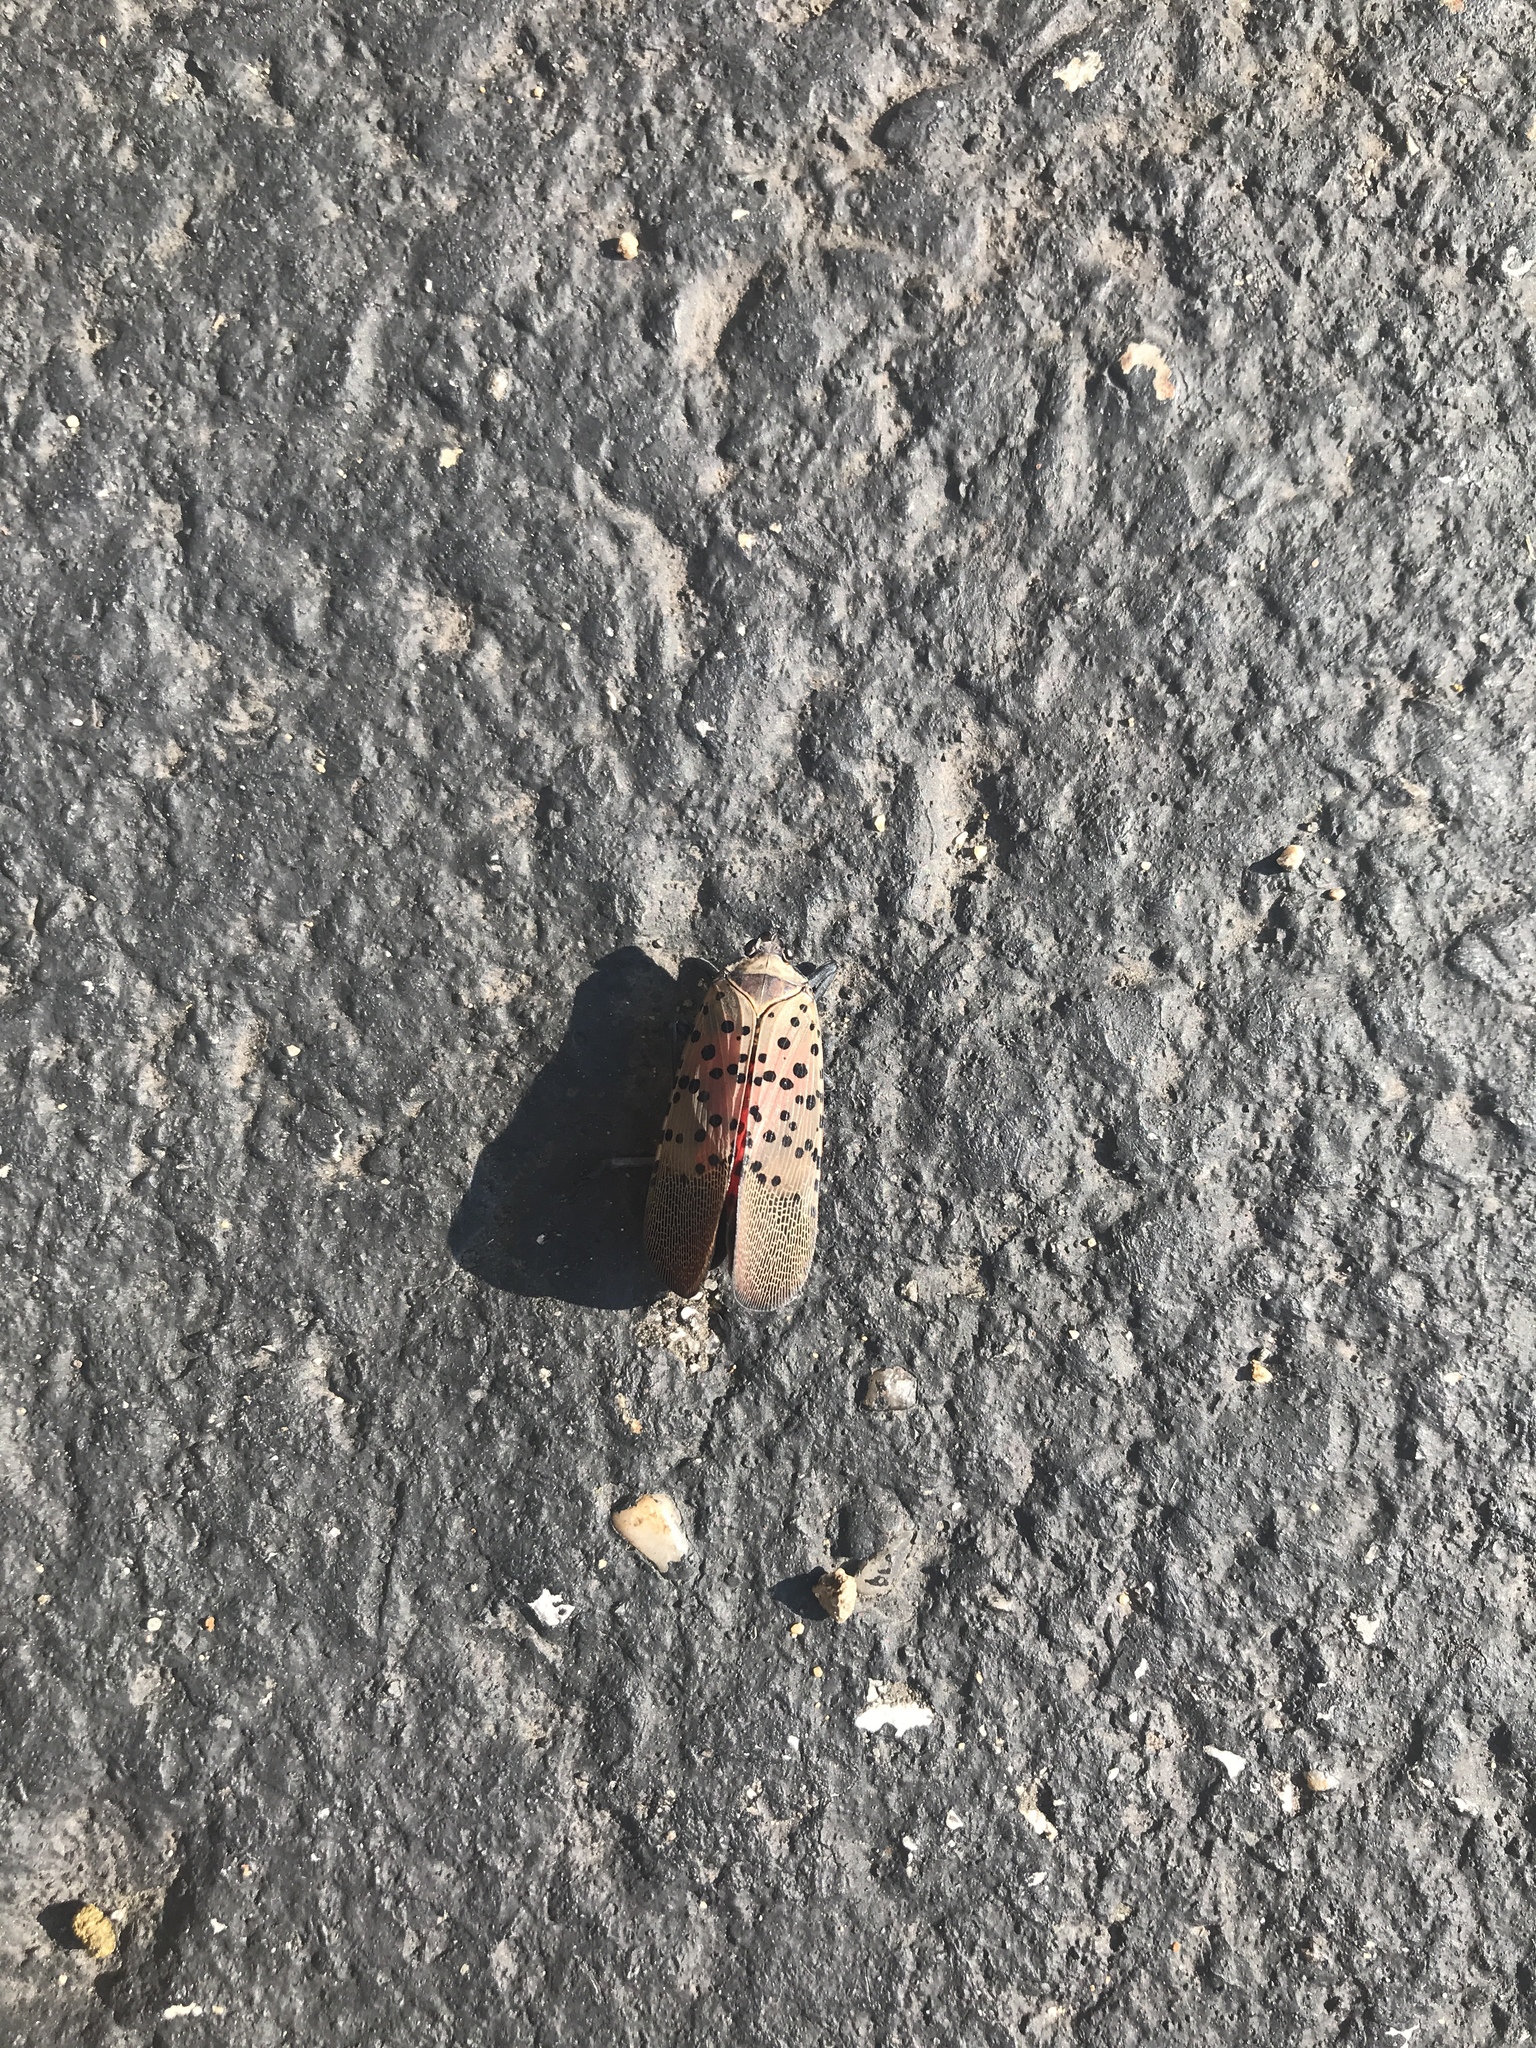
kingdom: Animalia
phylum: Arthropoda
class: Insecta
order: Hemiptera
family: Fulgoridae
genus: Lycorma
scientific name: Lycorma delicatula
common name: Spotted lanternfly
